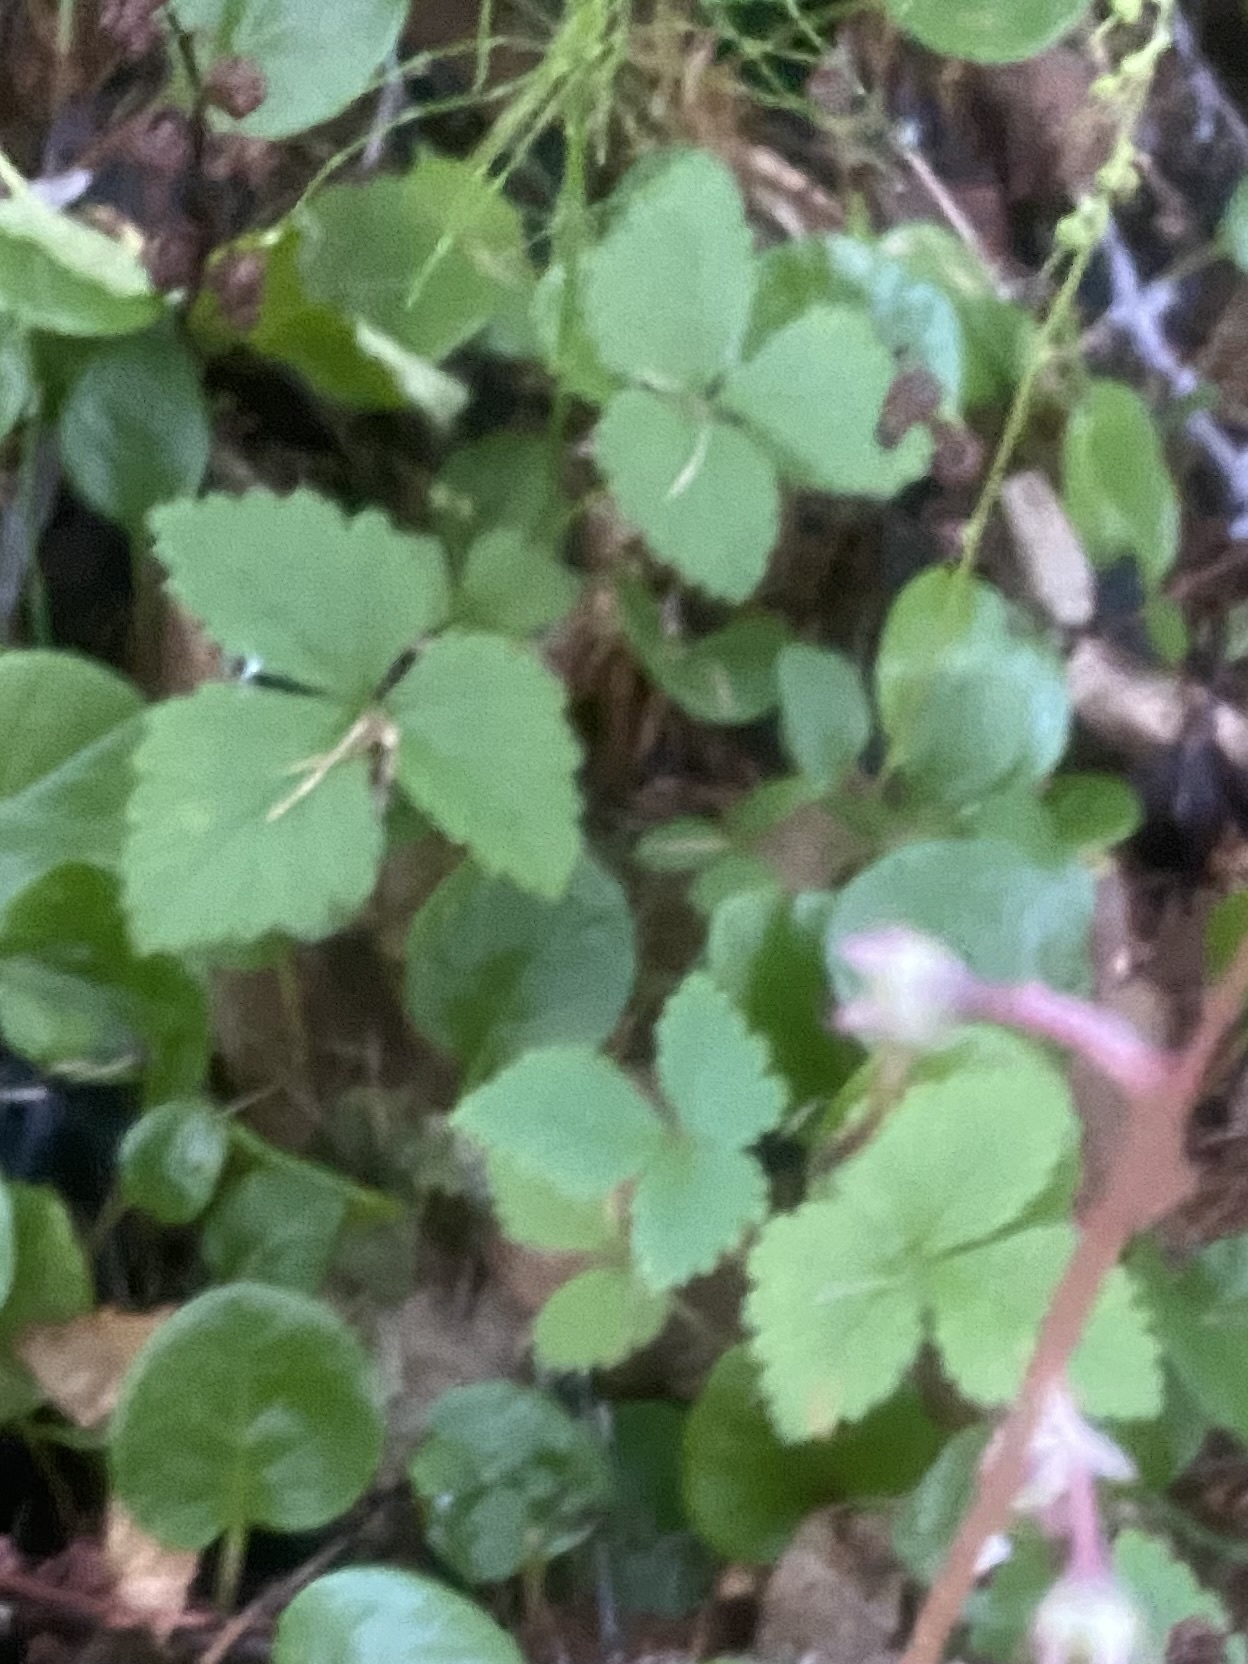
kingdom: Plantae
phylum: Tracheophyta
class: Magnoliopsida
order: Rosales
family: Rosaceae
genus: Rubus
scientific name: Rubus arcticus
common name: Arctic bramble
